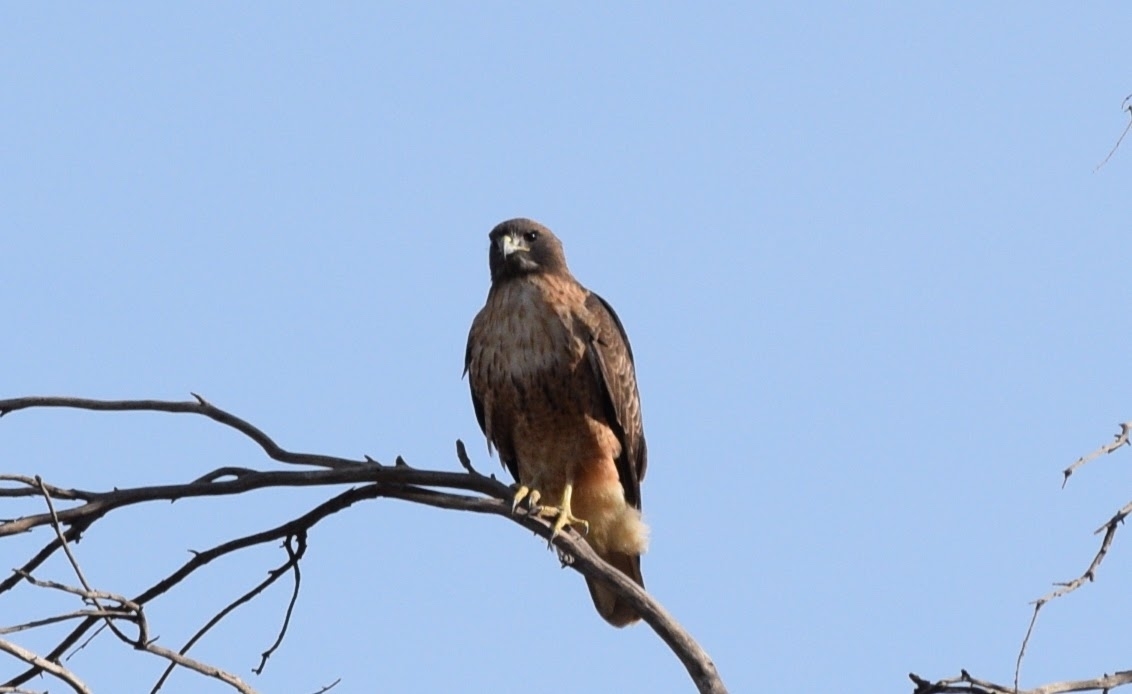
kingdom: Animalia
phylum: Chordata
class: Aves
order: Accipitriformes
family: Accipitridae
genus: Buteo
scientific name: Buteo jamaicensis
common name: Red-tailed hawk
